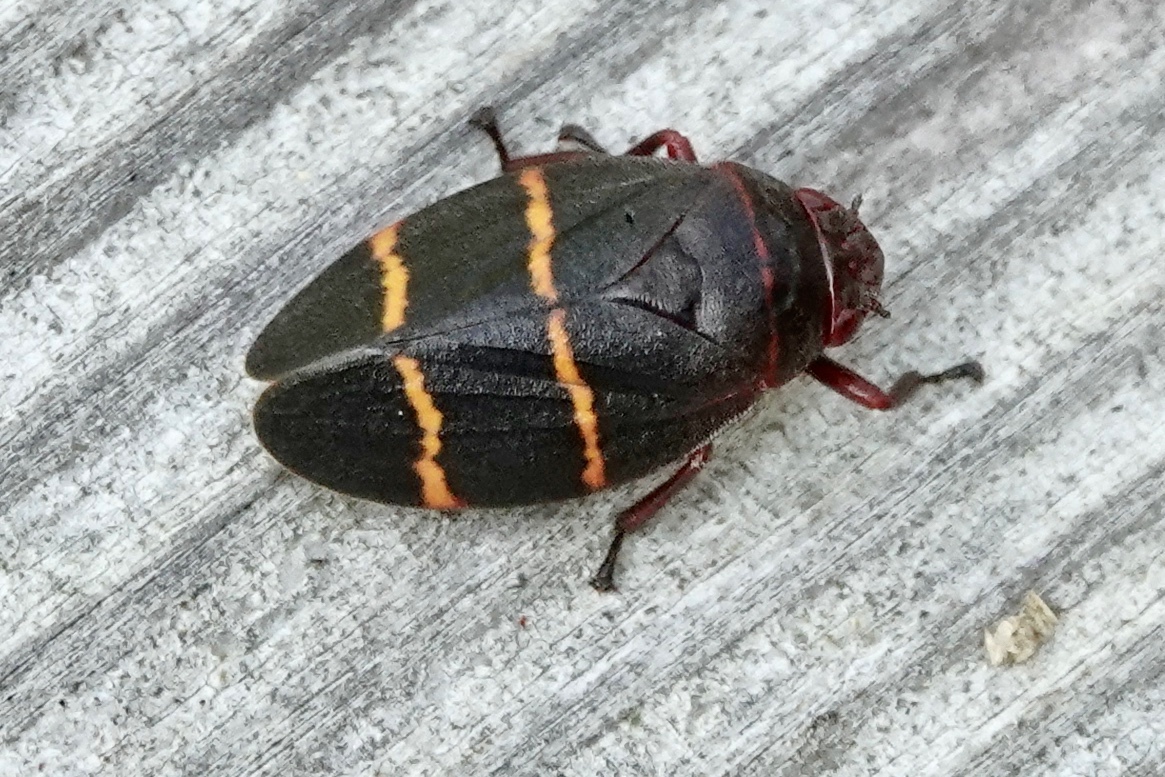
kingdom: Animalia
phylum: Arthropoda
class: Insecta
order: Hemiptera
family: Cercopidae
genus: Prosapia
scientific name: Prosapia bicincta
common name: Twolined spittlebug
